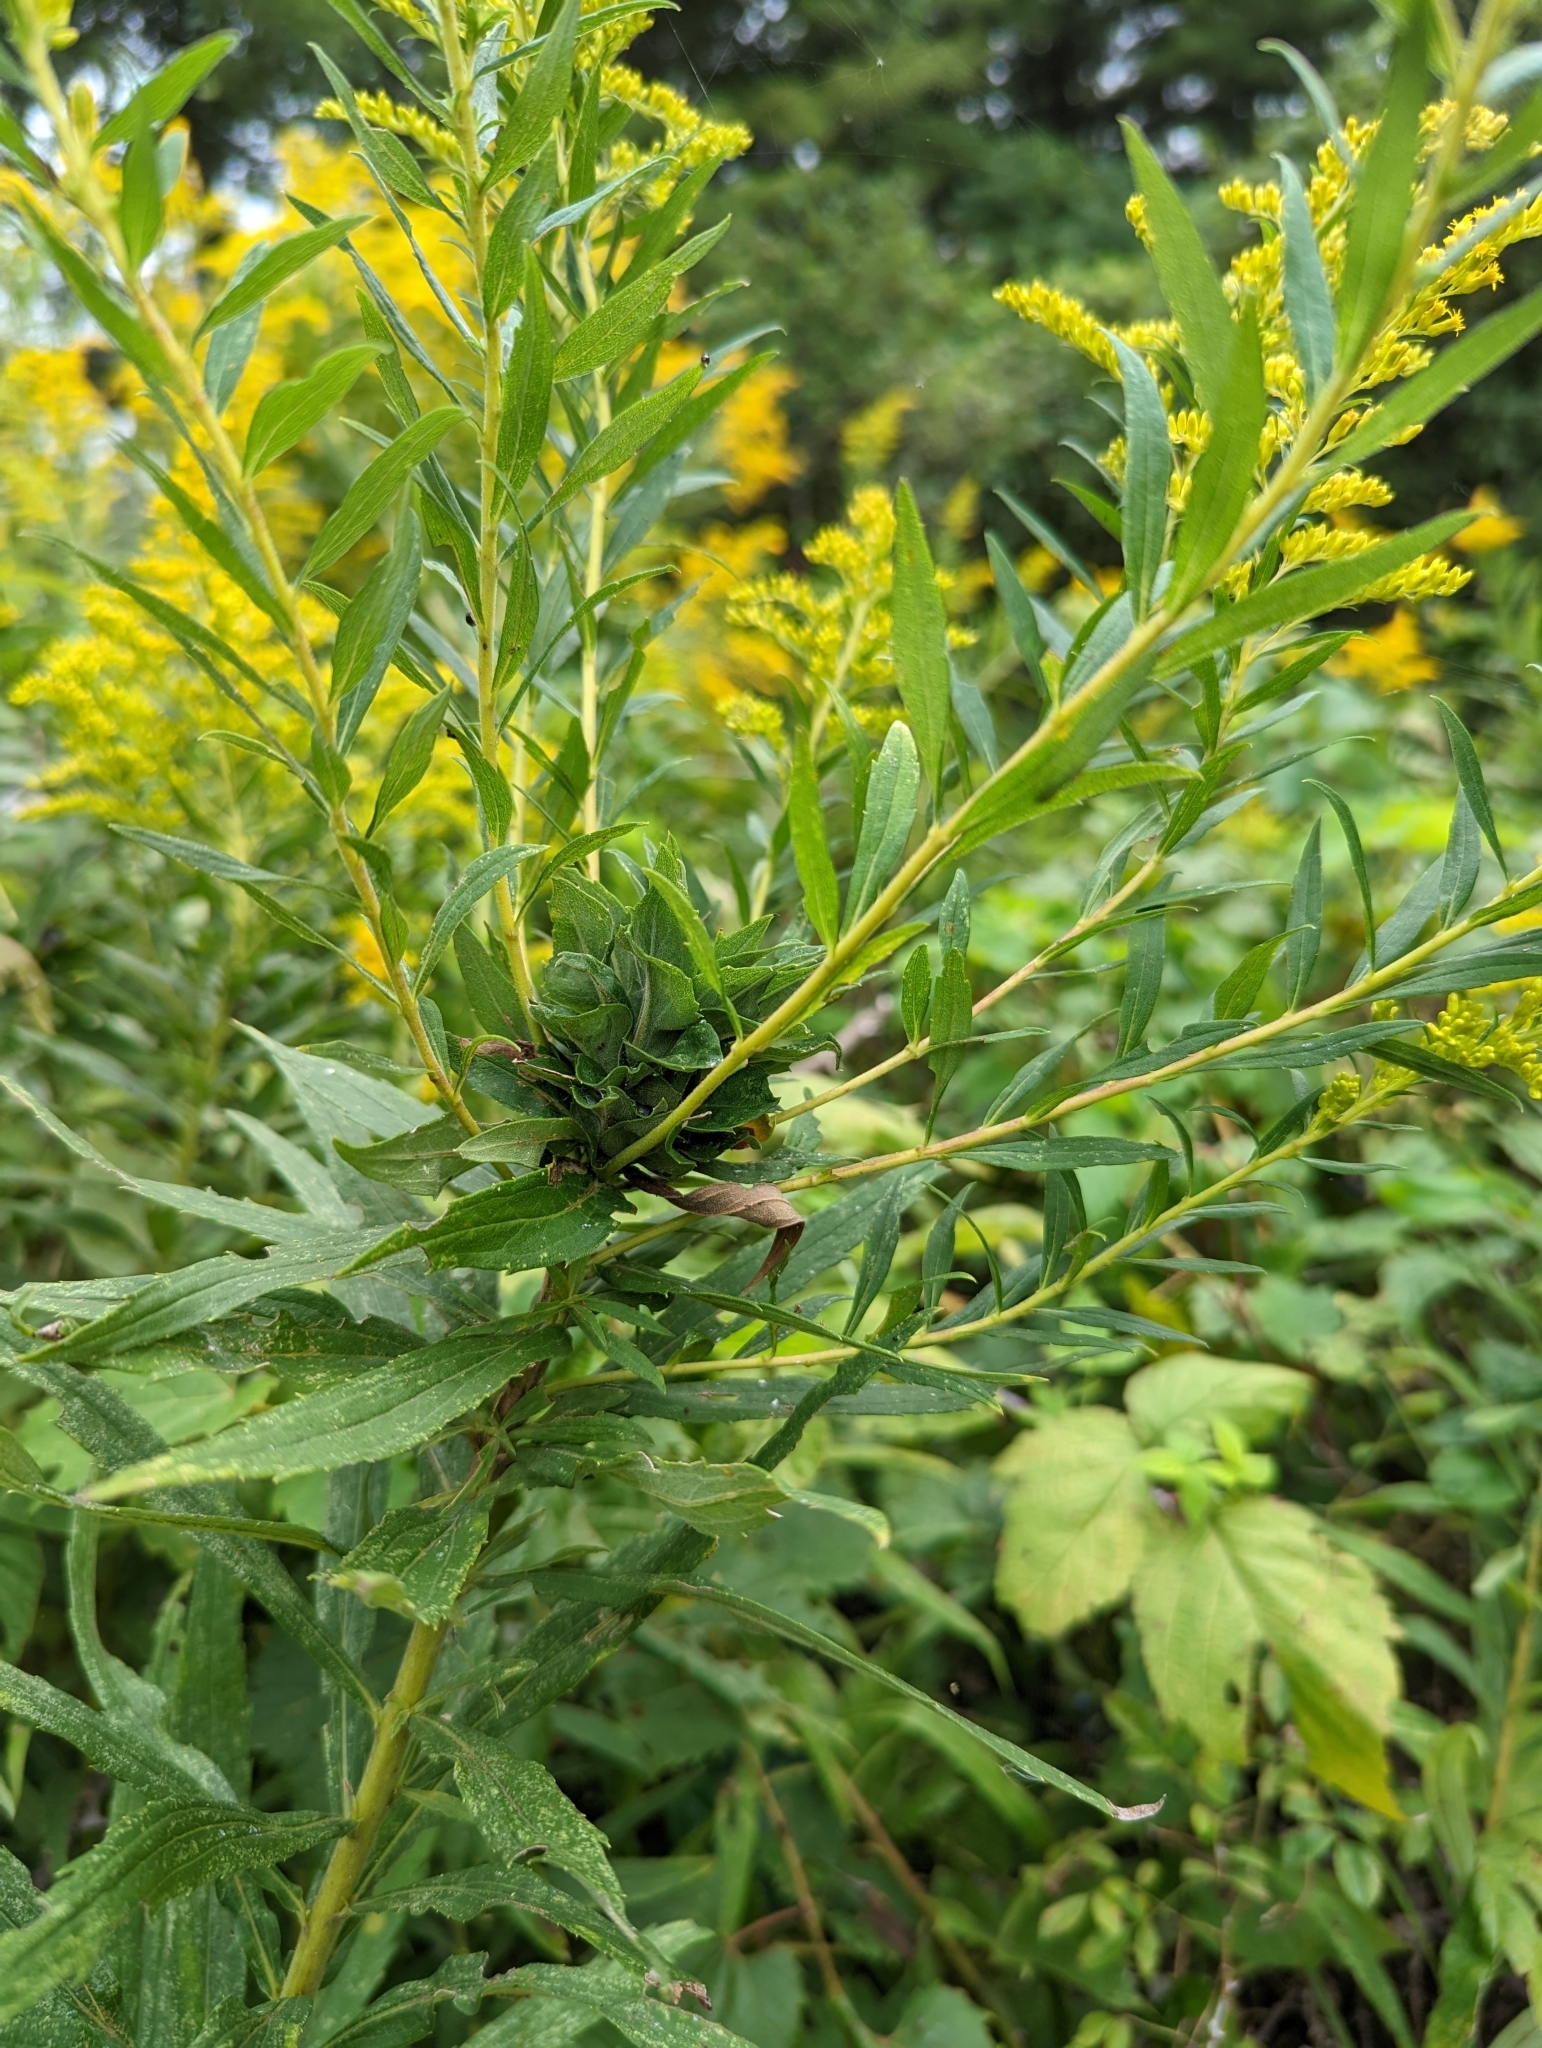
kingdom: Animalia
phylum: Arthropoda
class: Insecta
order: Diptera
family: Cecidomyiidae
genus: Rhopalomyia
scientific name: Rhopalomyia solidaginis
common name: Goldenrod bunch gall midge
